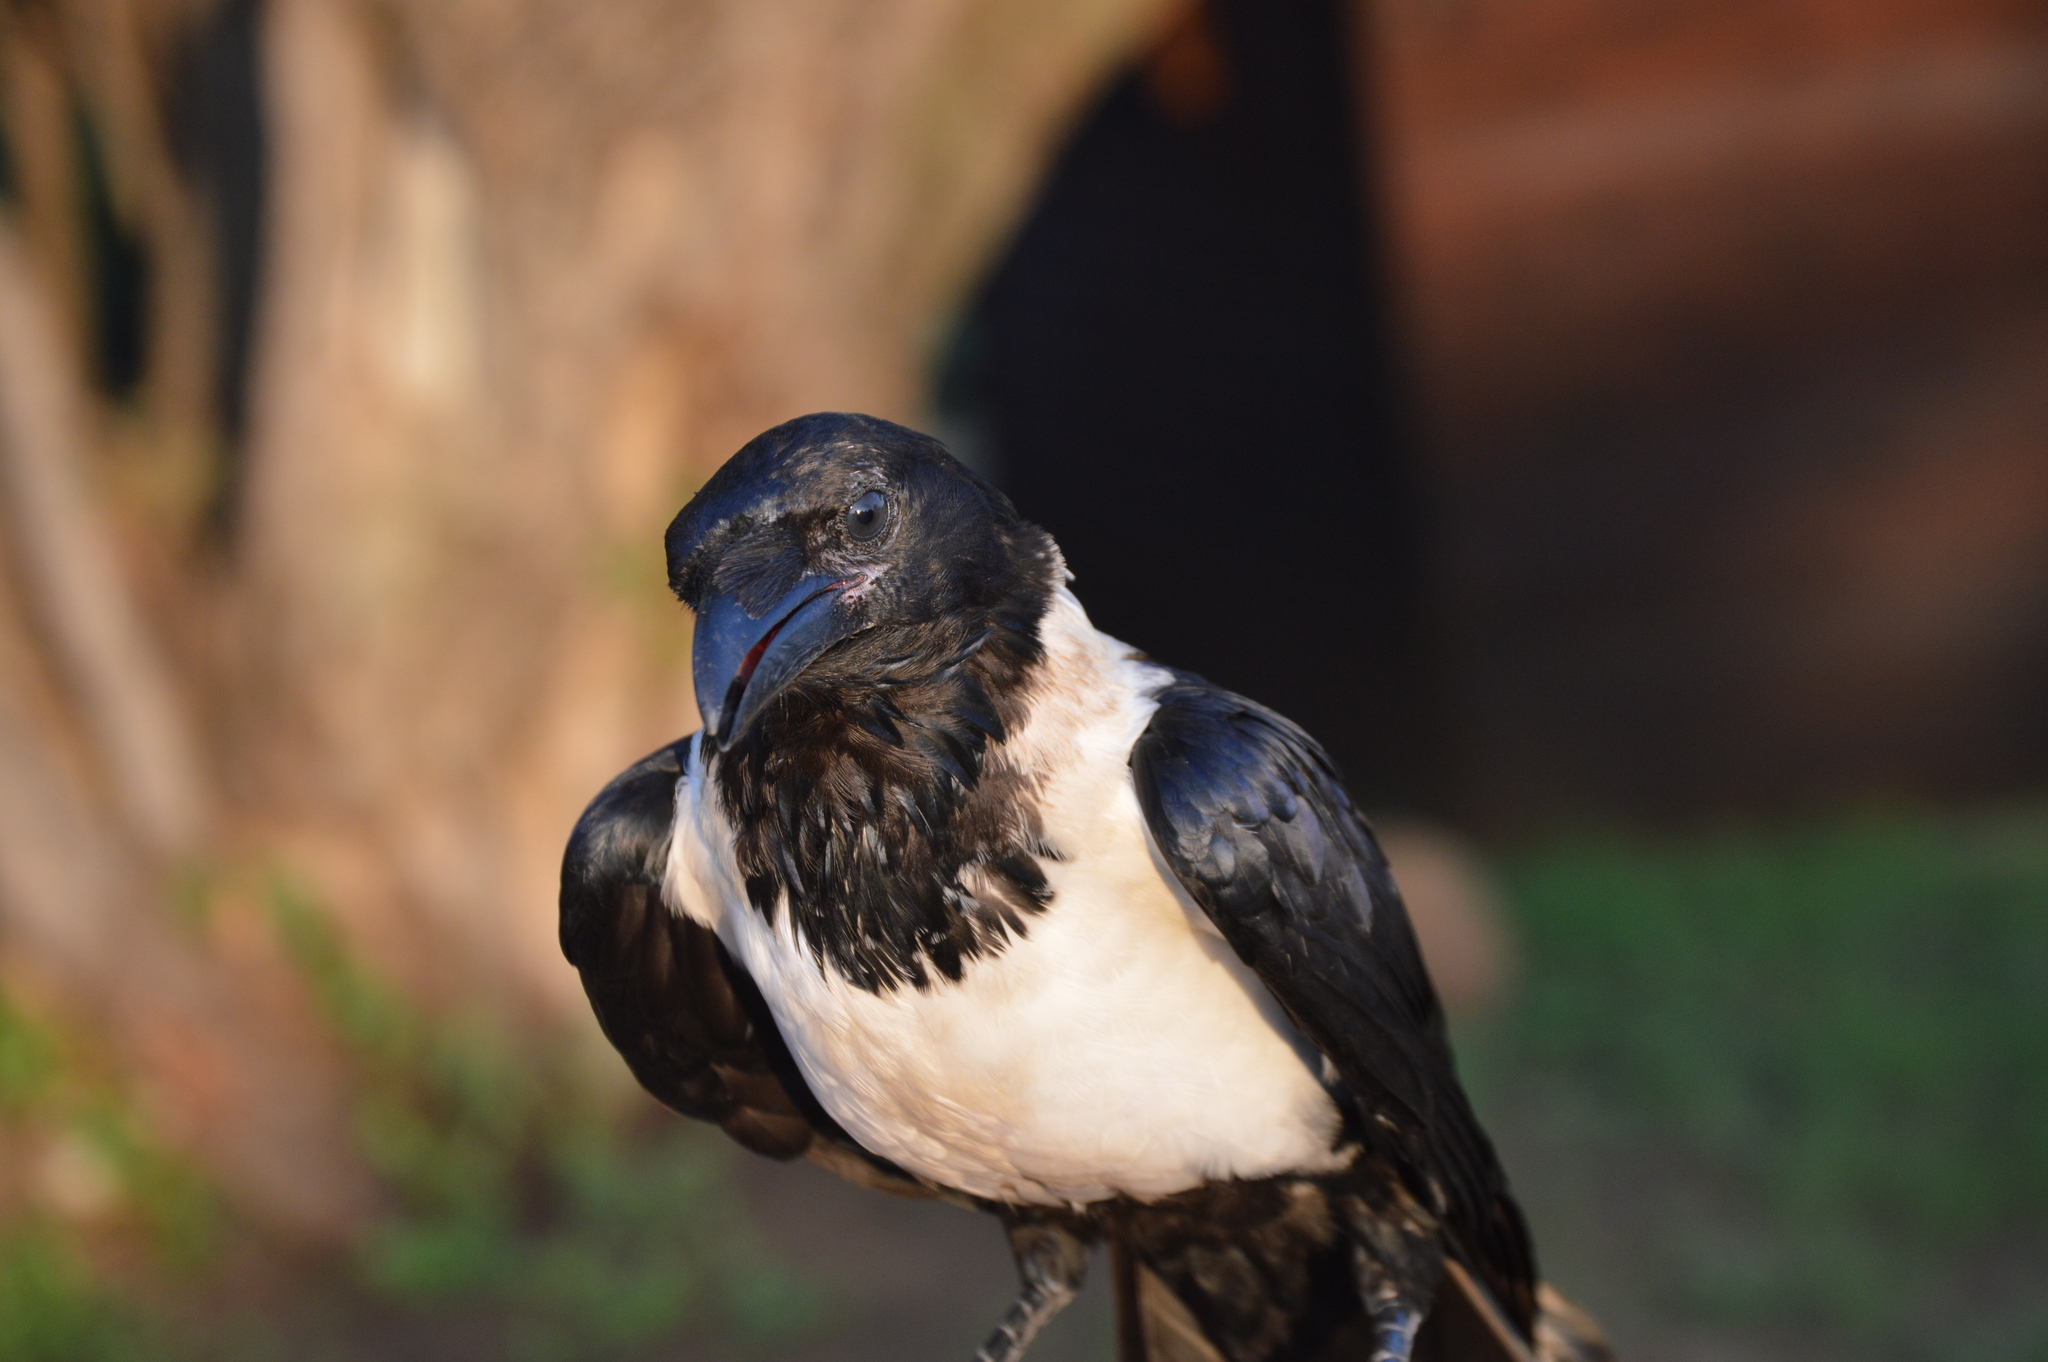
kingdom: Animalia
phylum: Chordata
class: Aves
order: Passeriformes
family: Corvidae
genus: Corvus
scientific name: Corvus albus
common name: Pied crow
